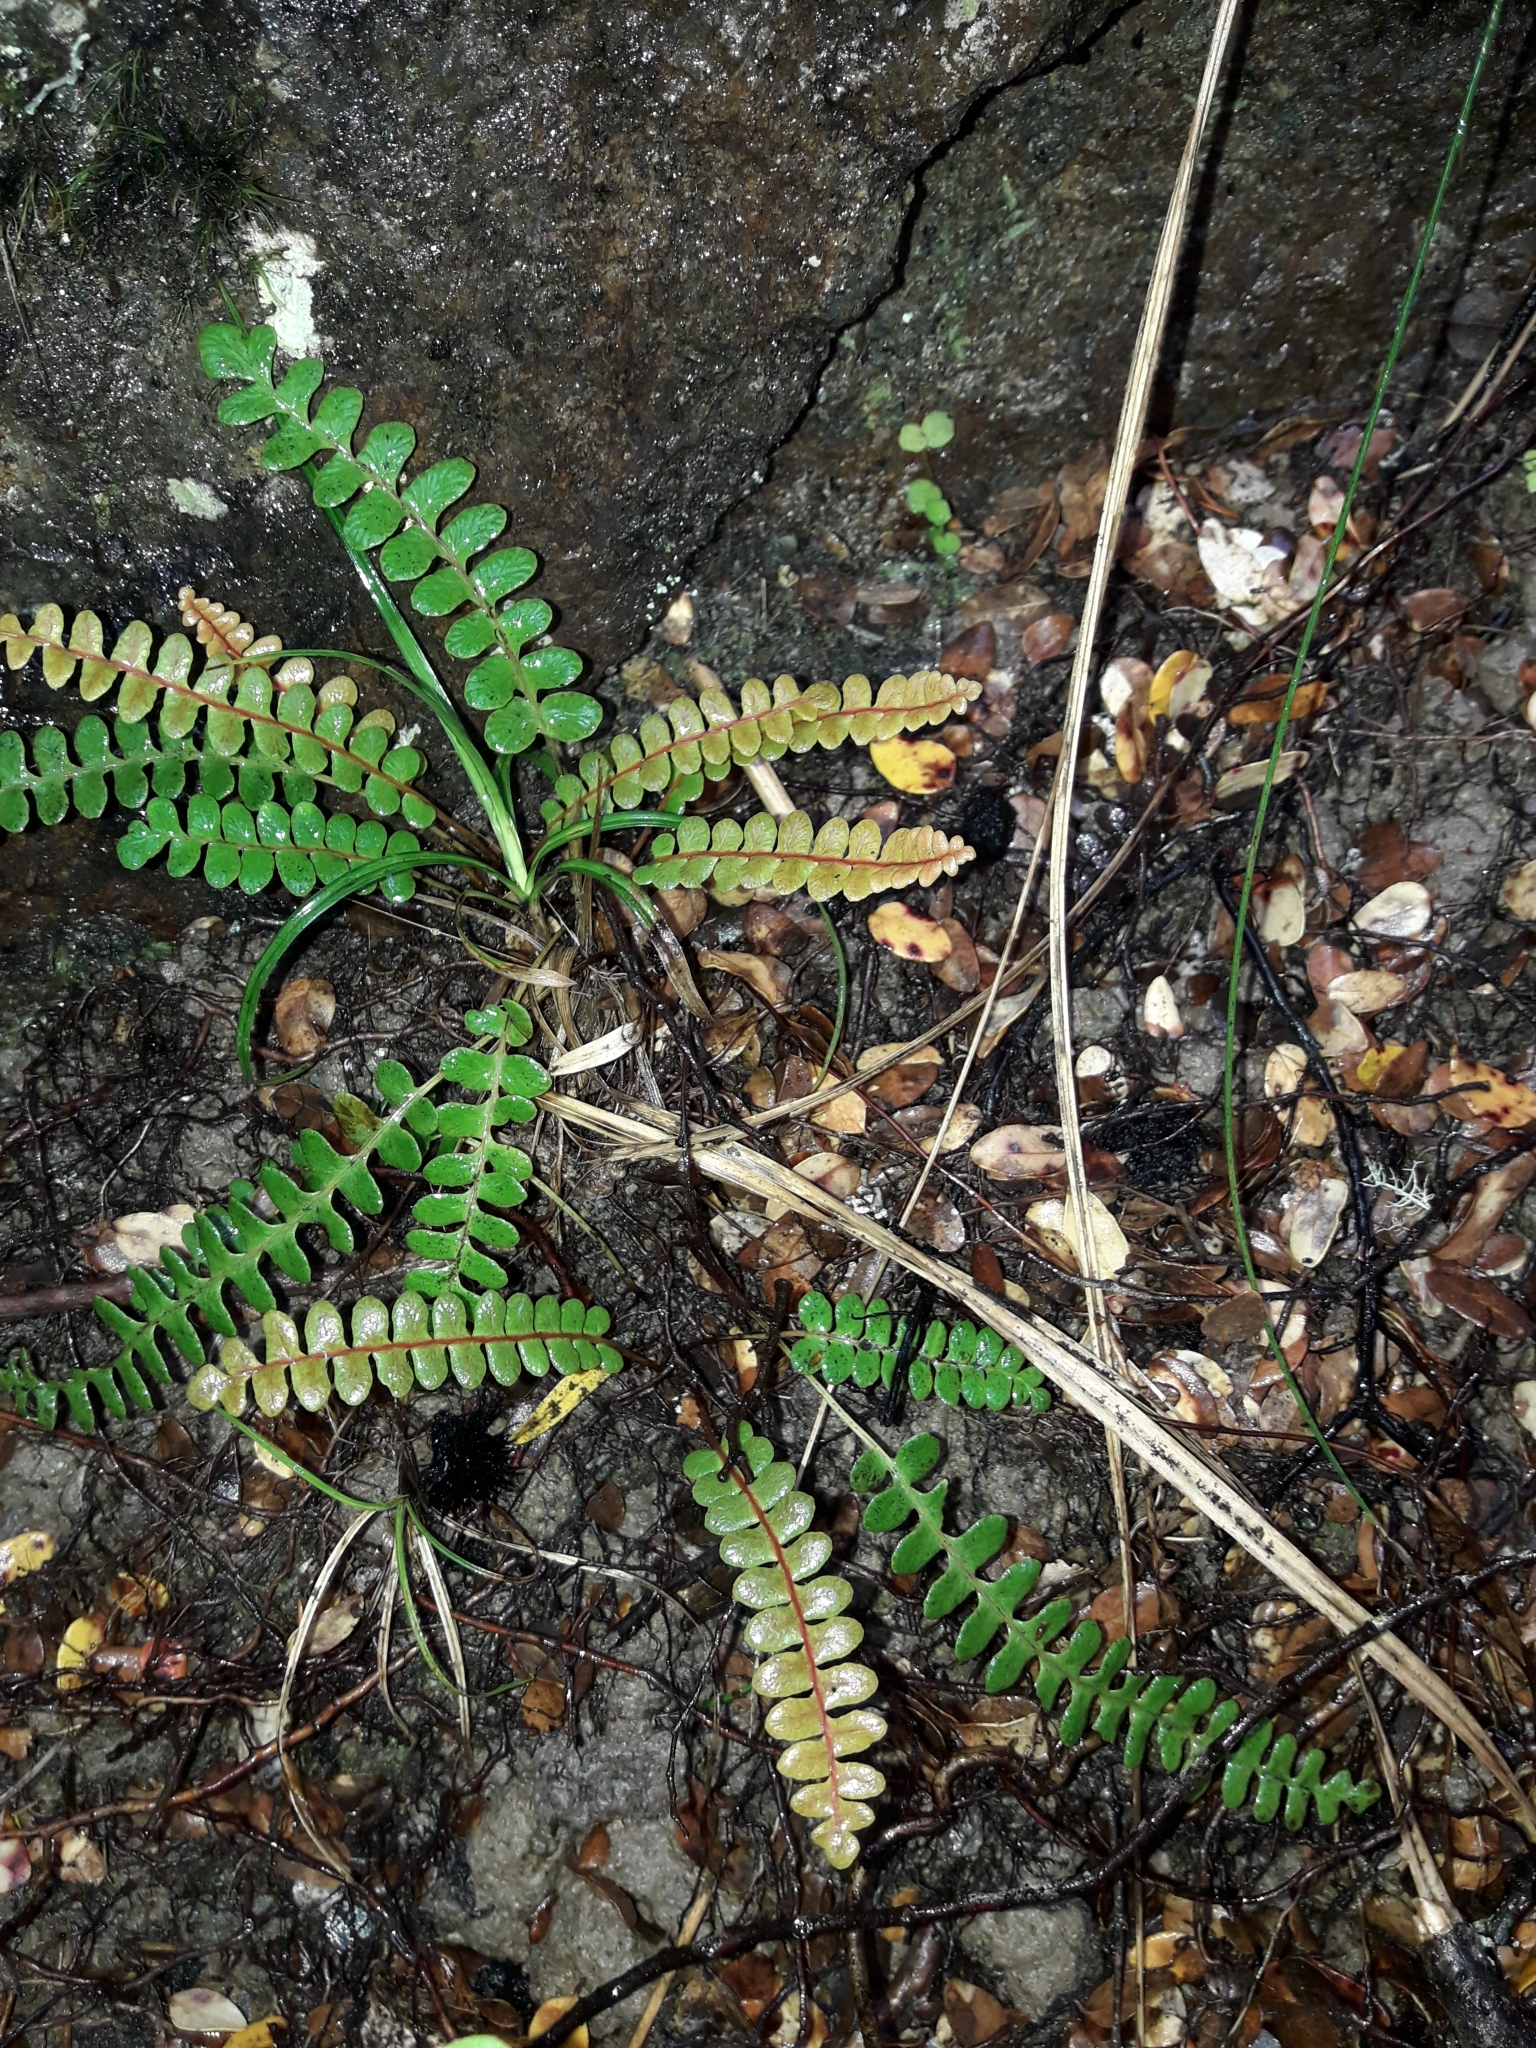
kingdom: Plantae
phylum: Tracheophyta
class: Polypodiopsida
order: Polypodiales
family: Blechnaceae
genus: Austroblechnum
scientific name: Austroblechnum penna-marina
